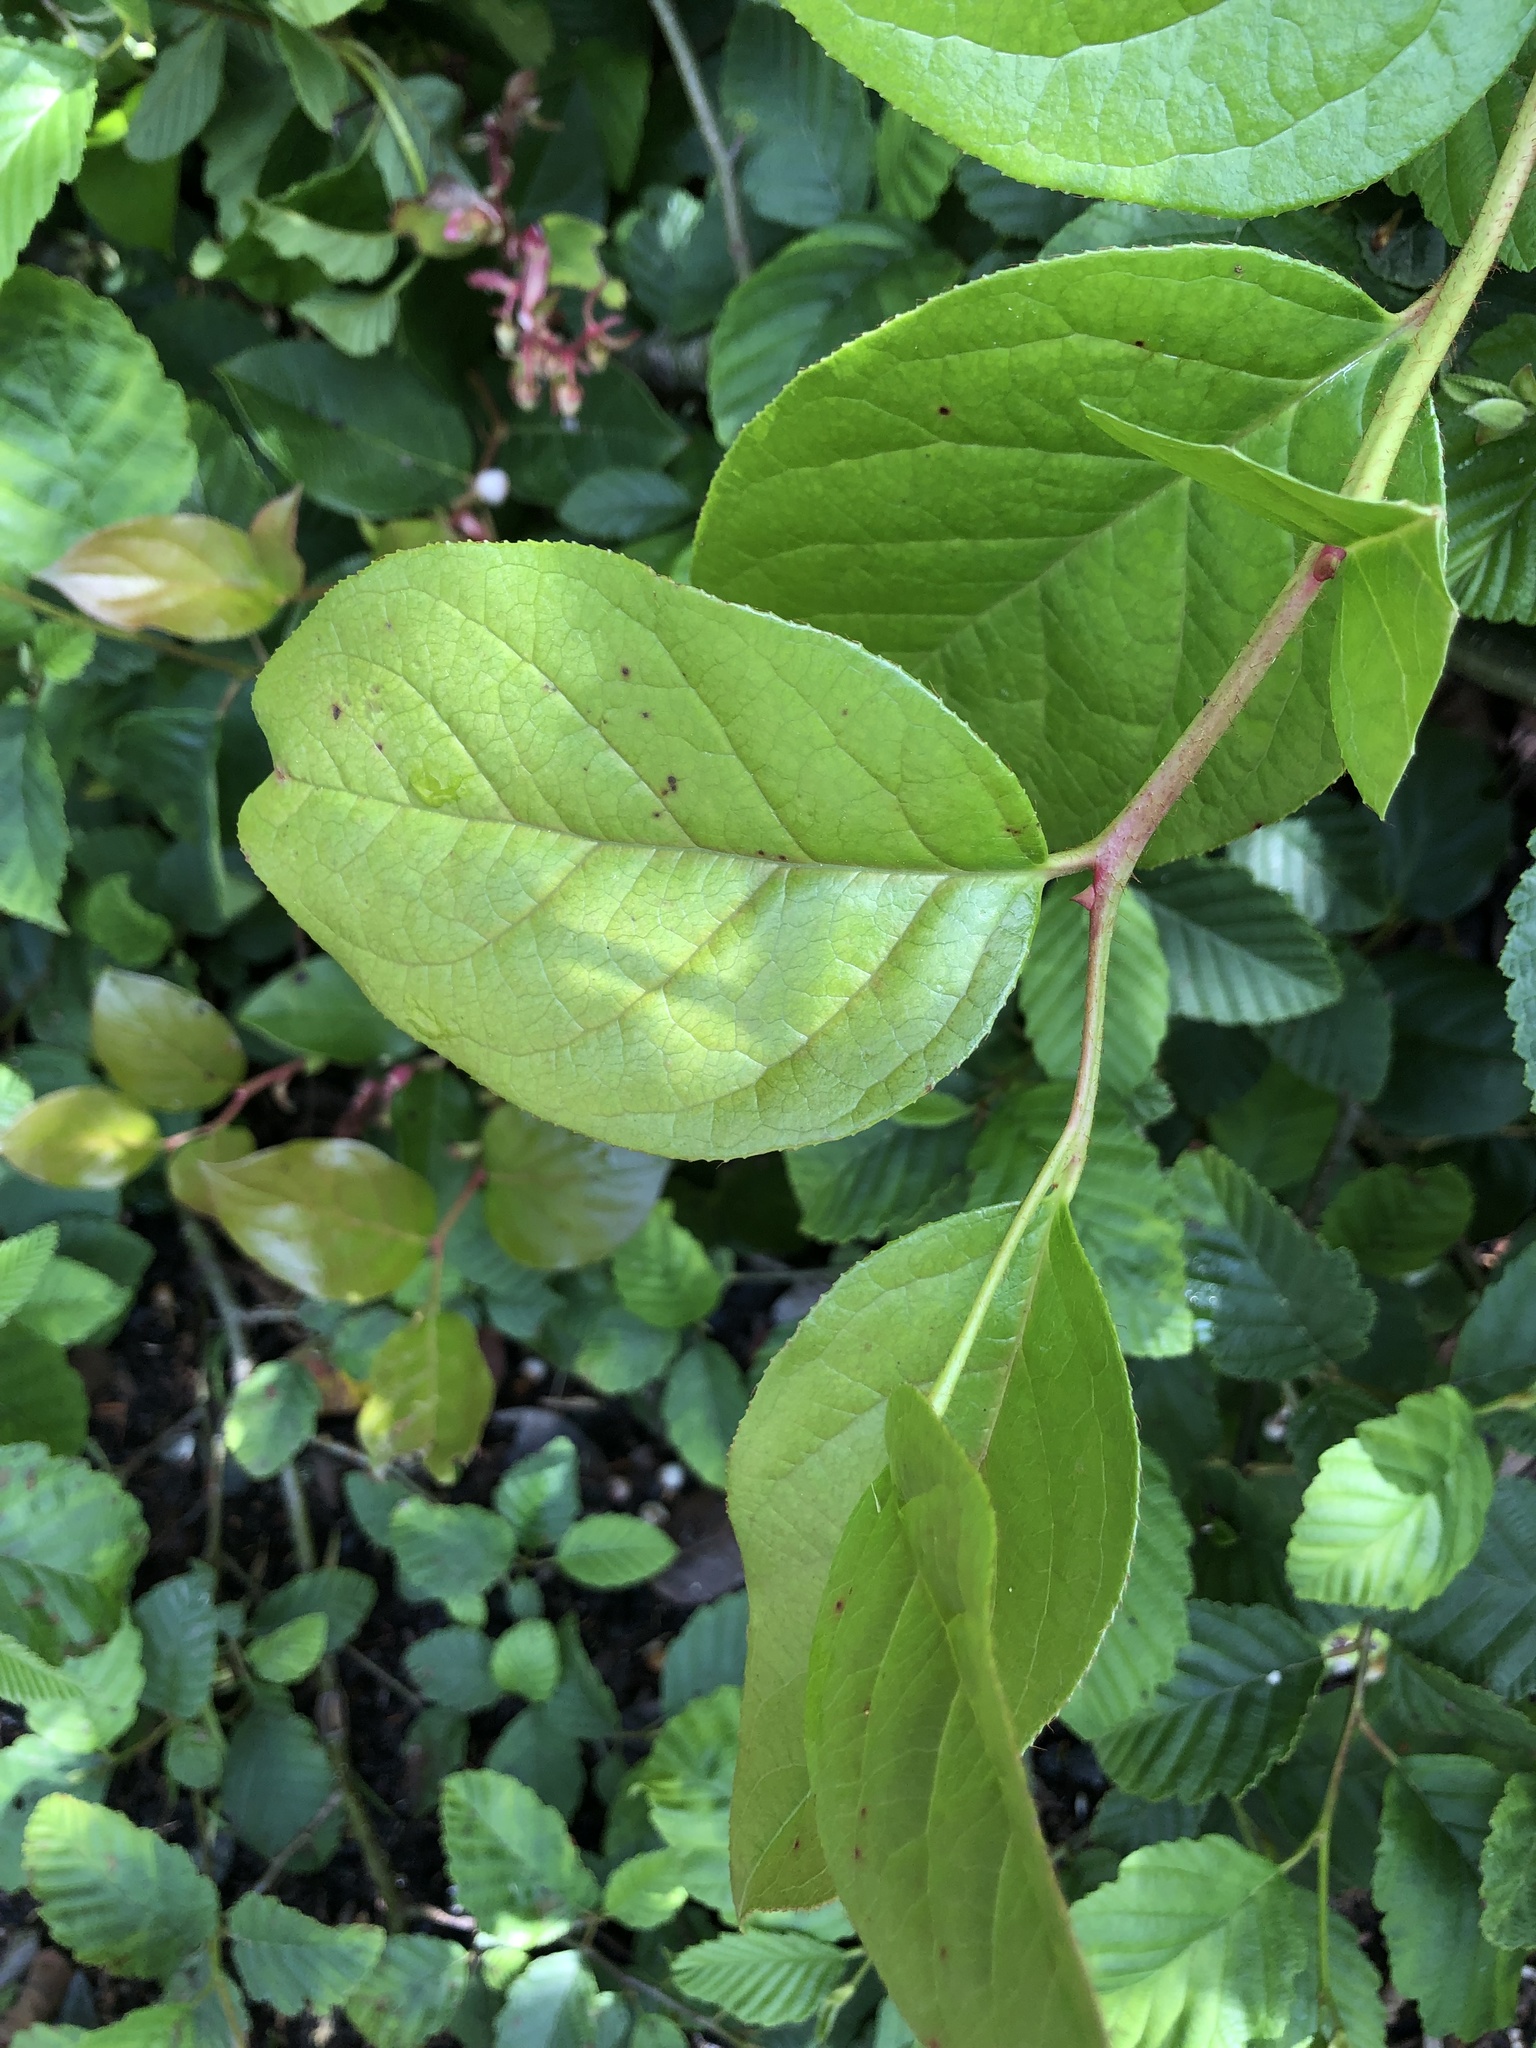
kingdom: Plantae
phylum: Tracheophyta
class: Magnoliopsida
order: Ericales
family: Ericaceae
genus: Gaultheria
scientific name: Gaultheria shallon
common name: Shallon
